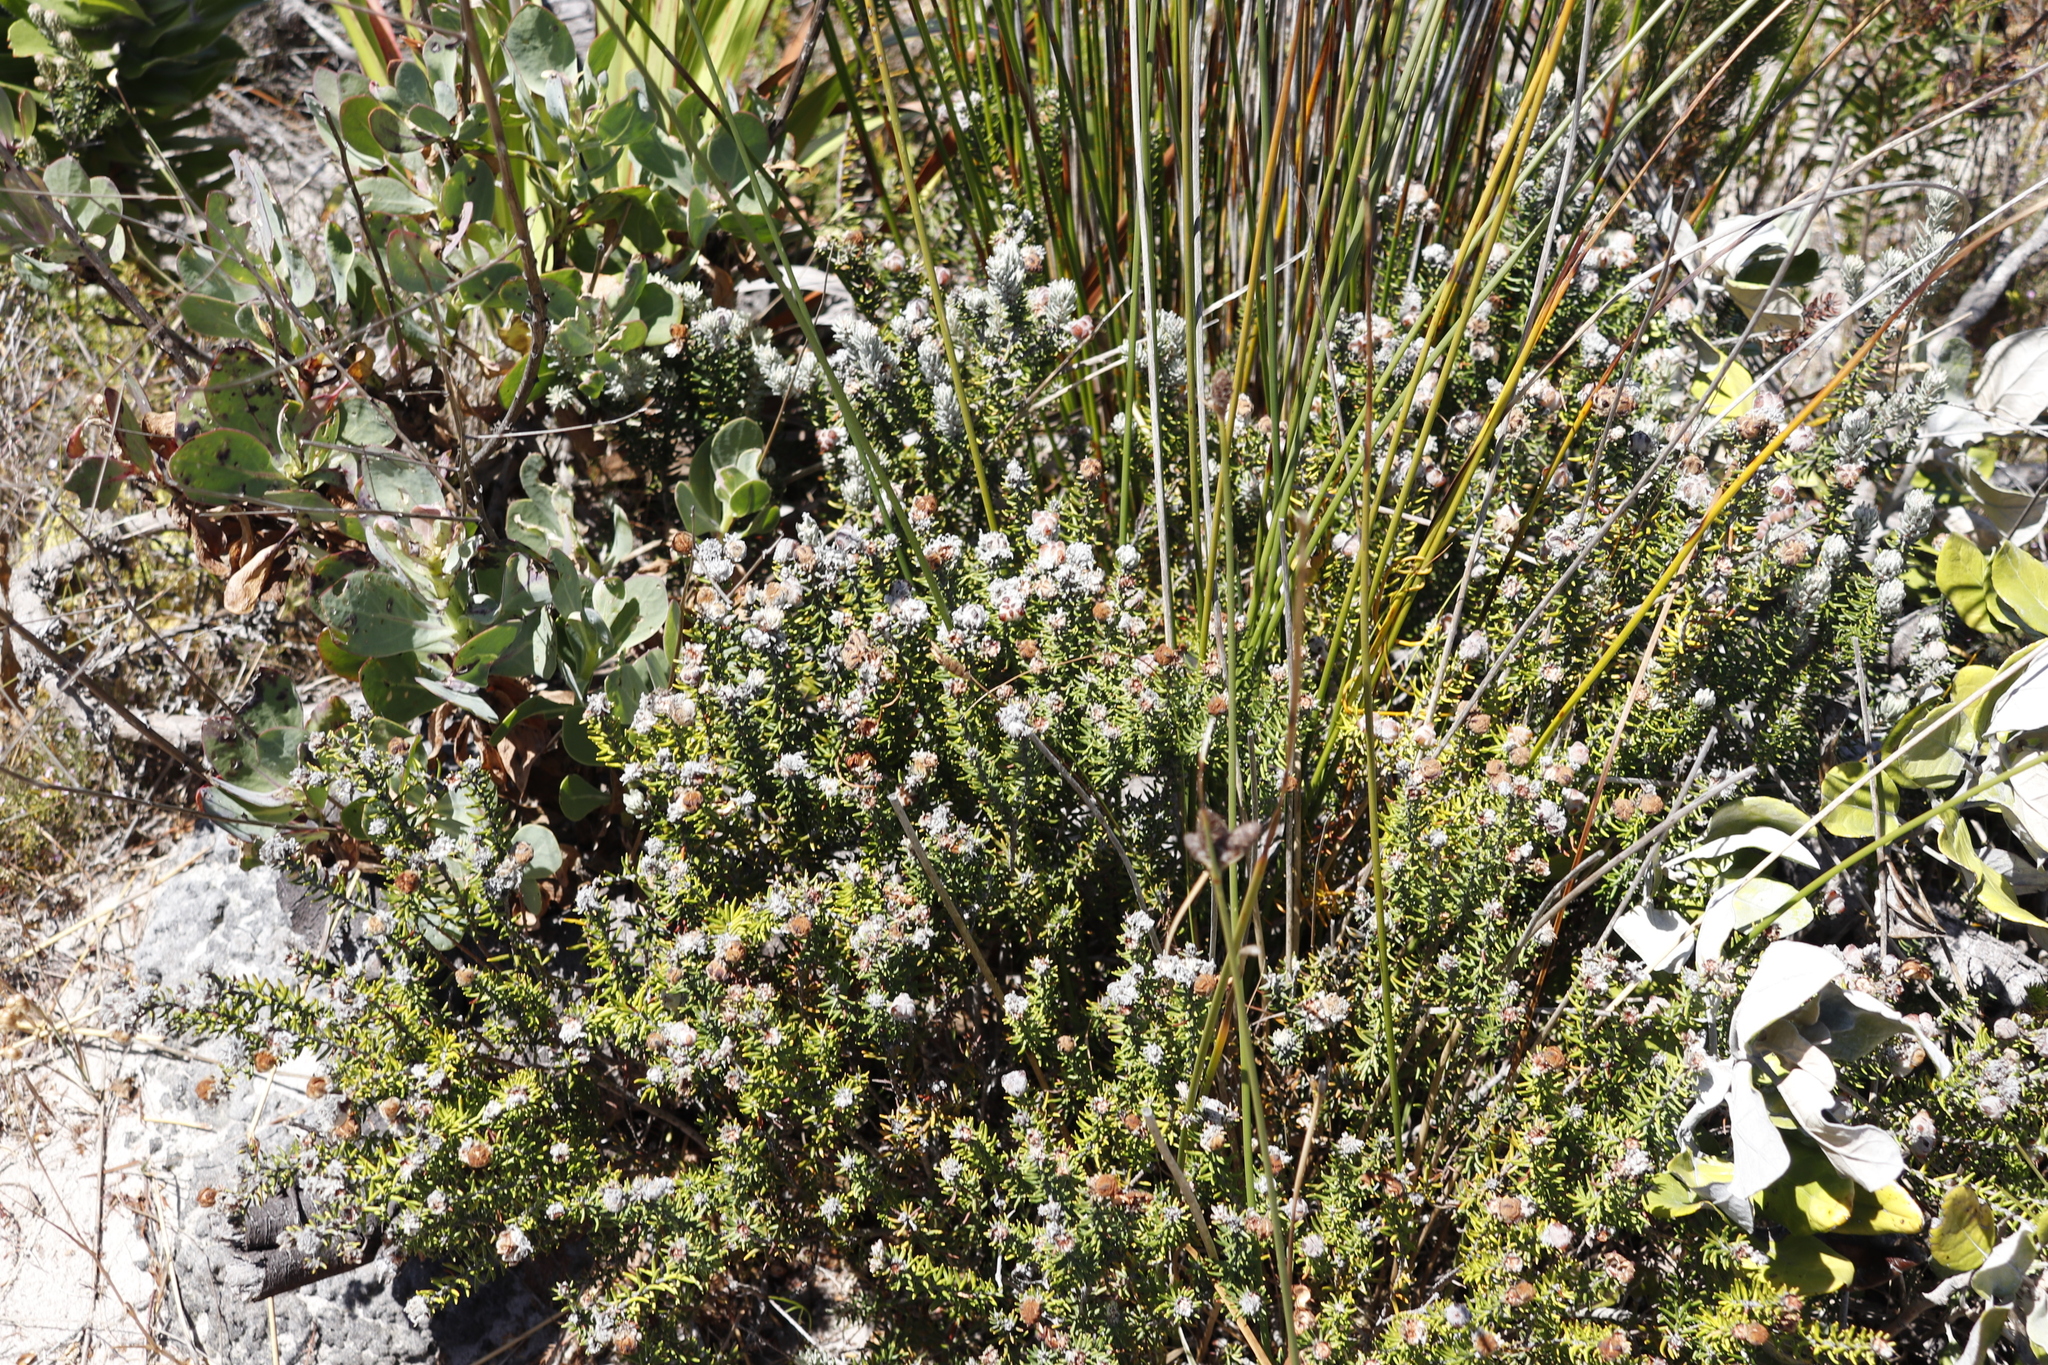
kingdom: Plantae
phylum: Tracheophyta
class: Magnoliopsida
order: Rosales
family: Rhamnaceae
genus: Trichocephalus
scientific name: Trichocephalus stipularis
